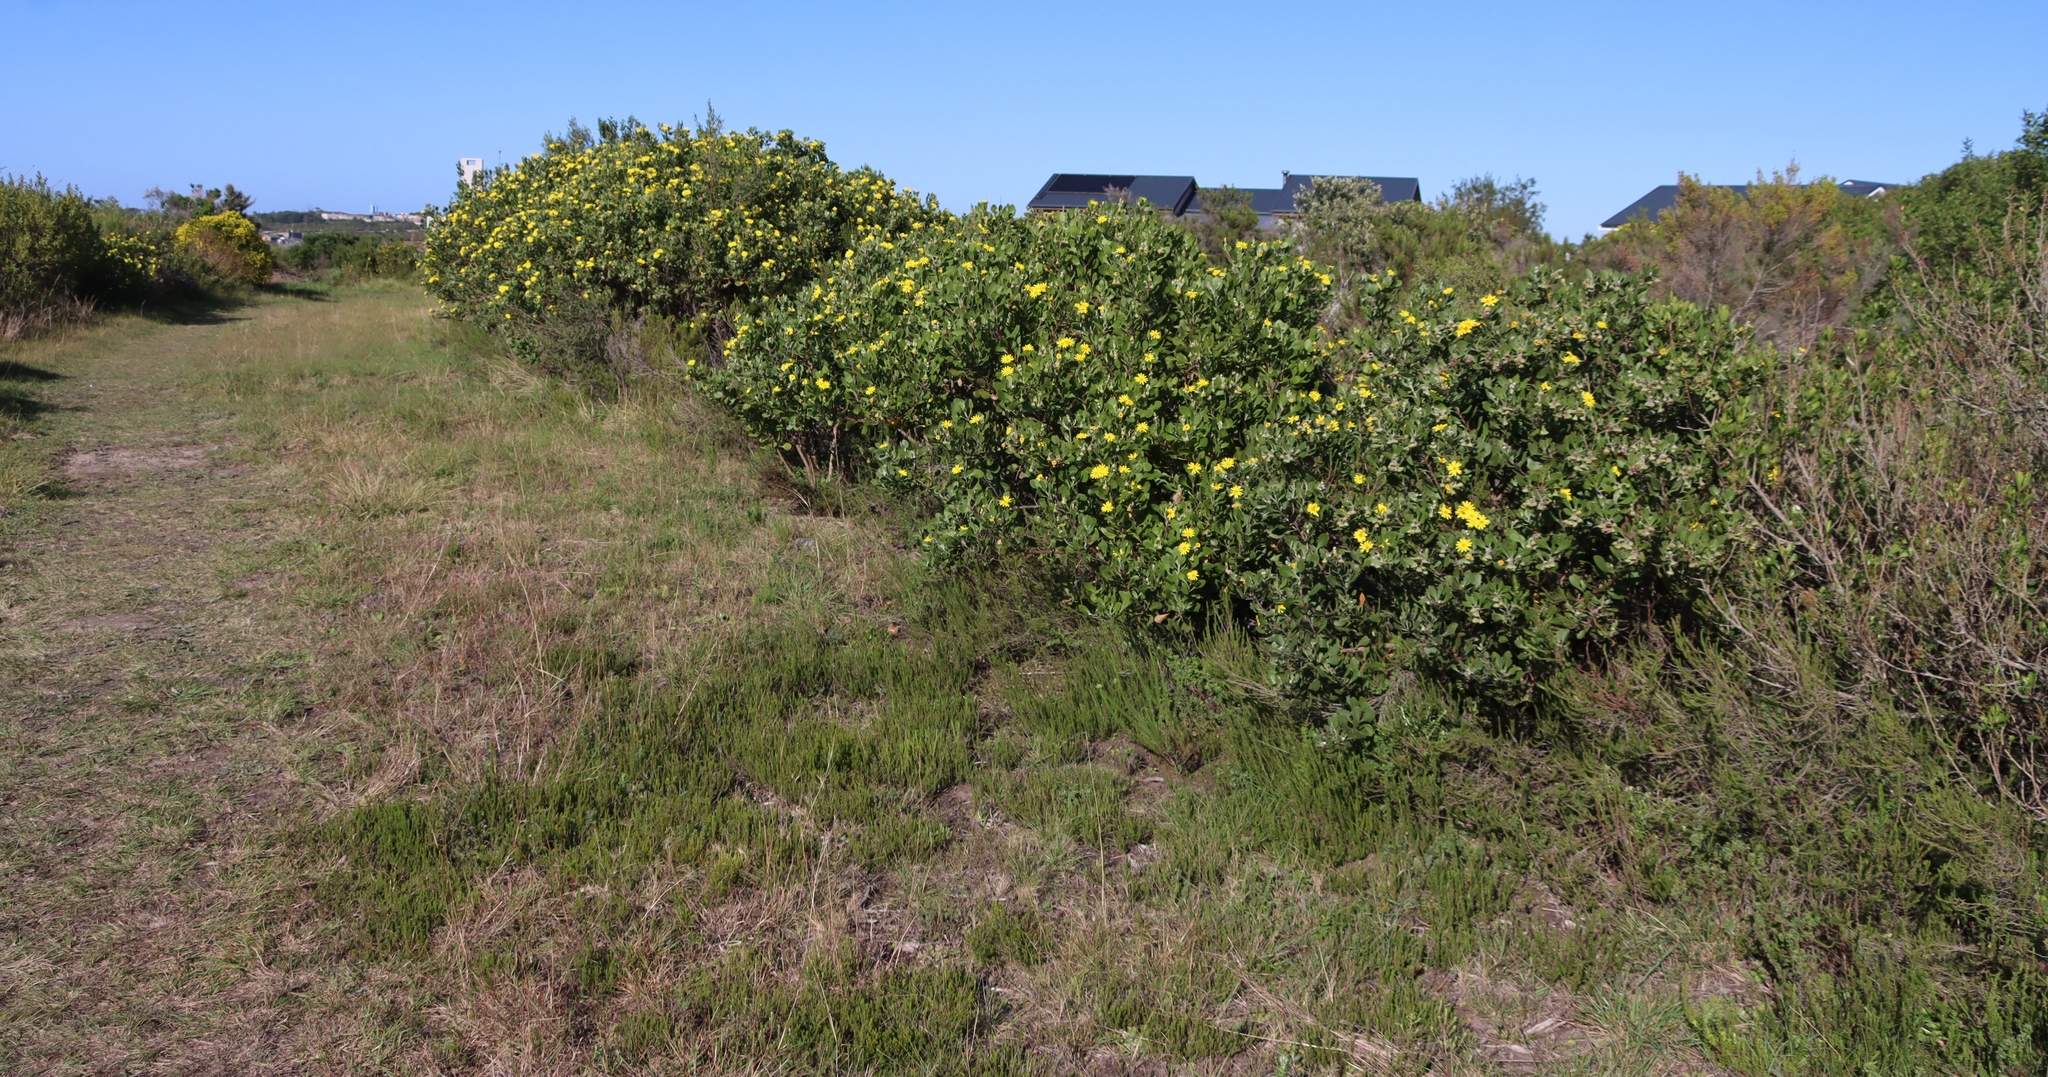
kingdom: Plantae
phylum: Tracheophyta
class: Magnoliopsida
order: Rosales
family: Rosaceae
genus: Cliffortia
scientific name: Cliffortia linearifolia
